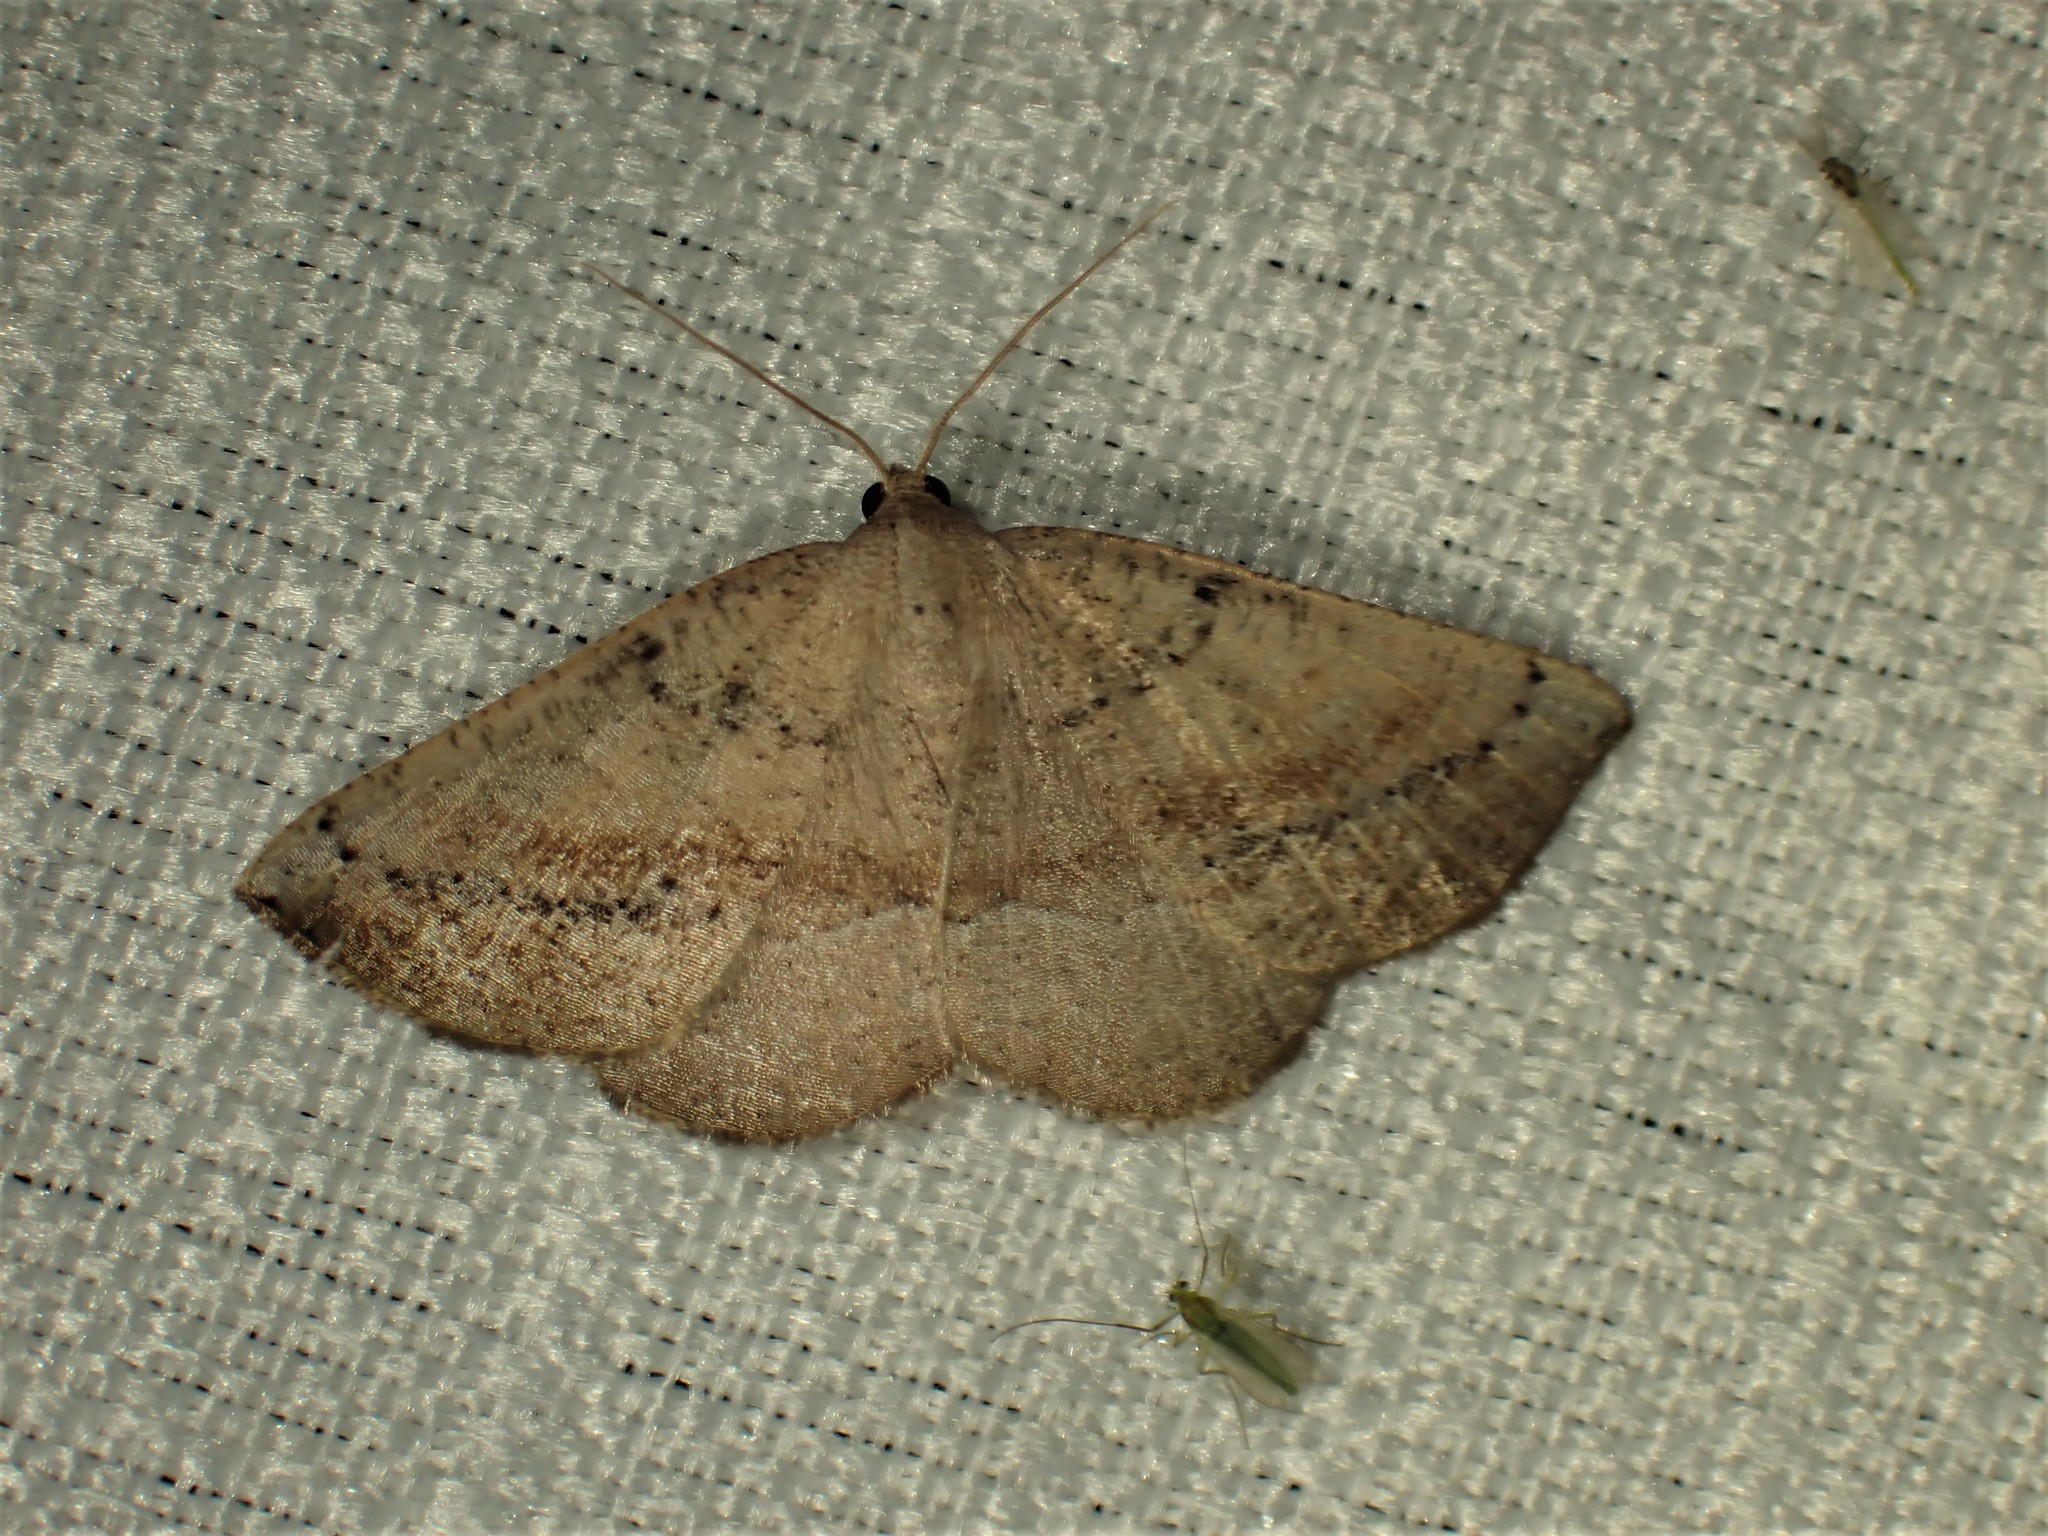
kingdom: Animalia
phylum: Arthropoda
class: Insecta
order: Lepidoptera
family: Geometridae
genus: Tacparia
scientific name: Tacparia atropunctata
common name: Northern pale alder
